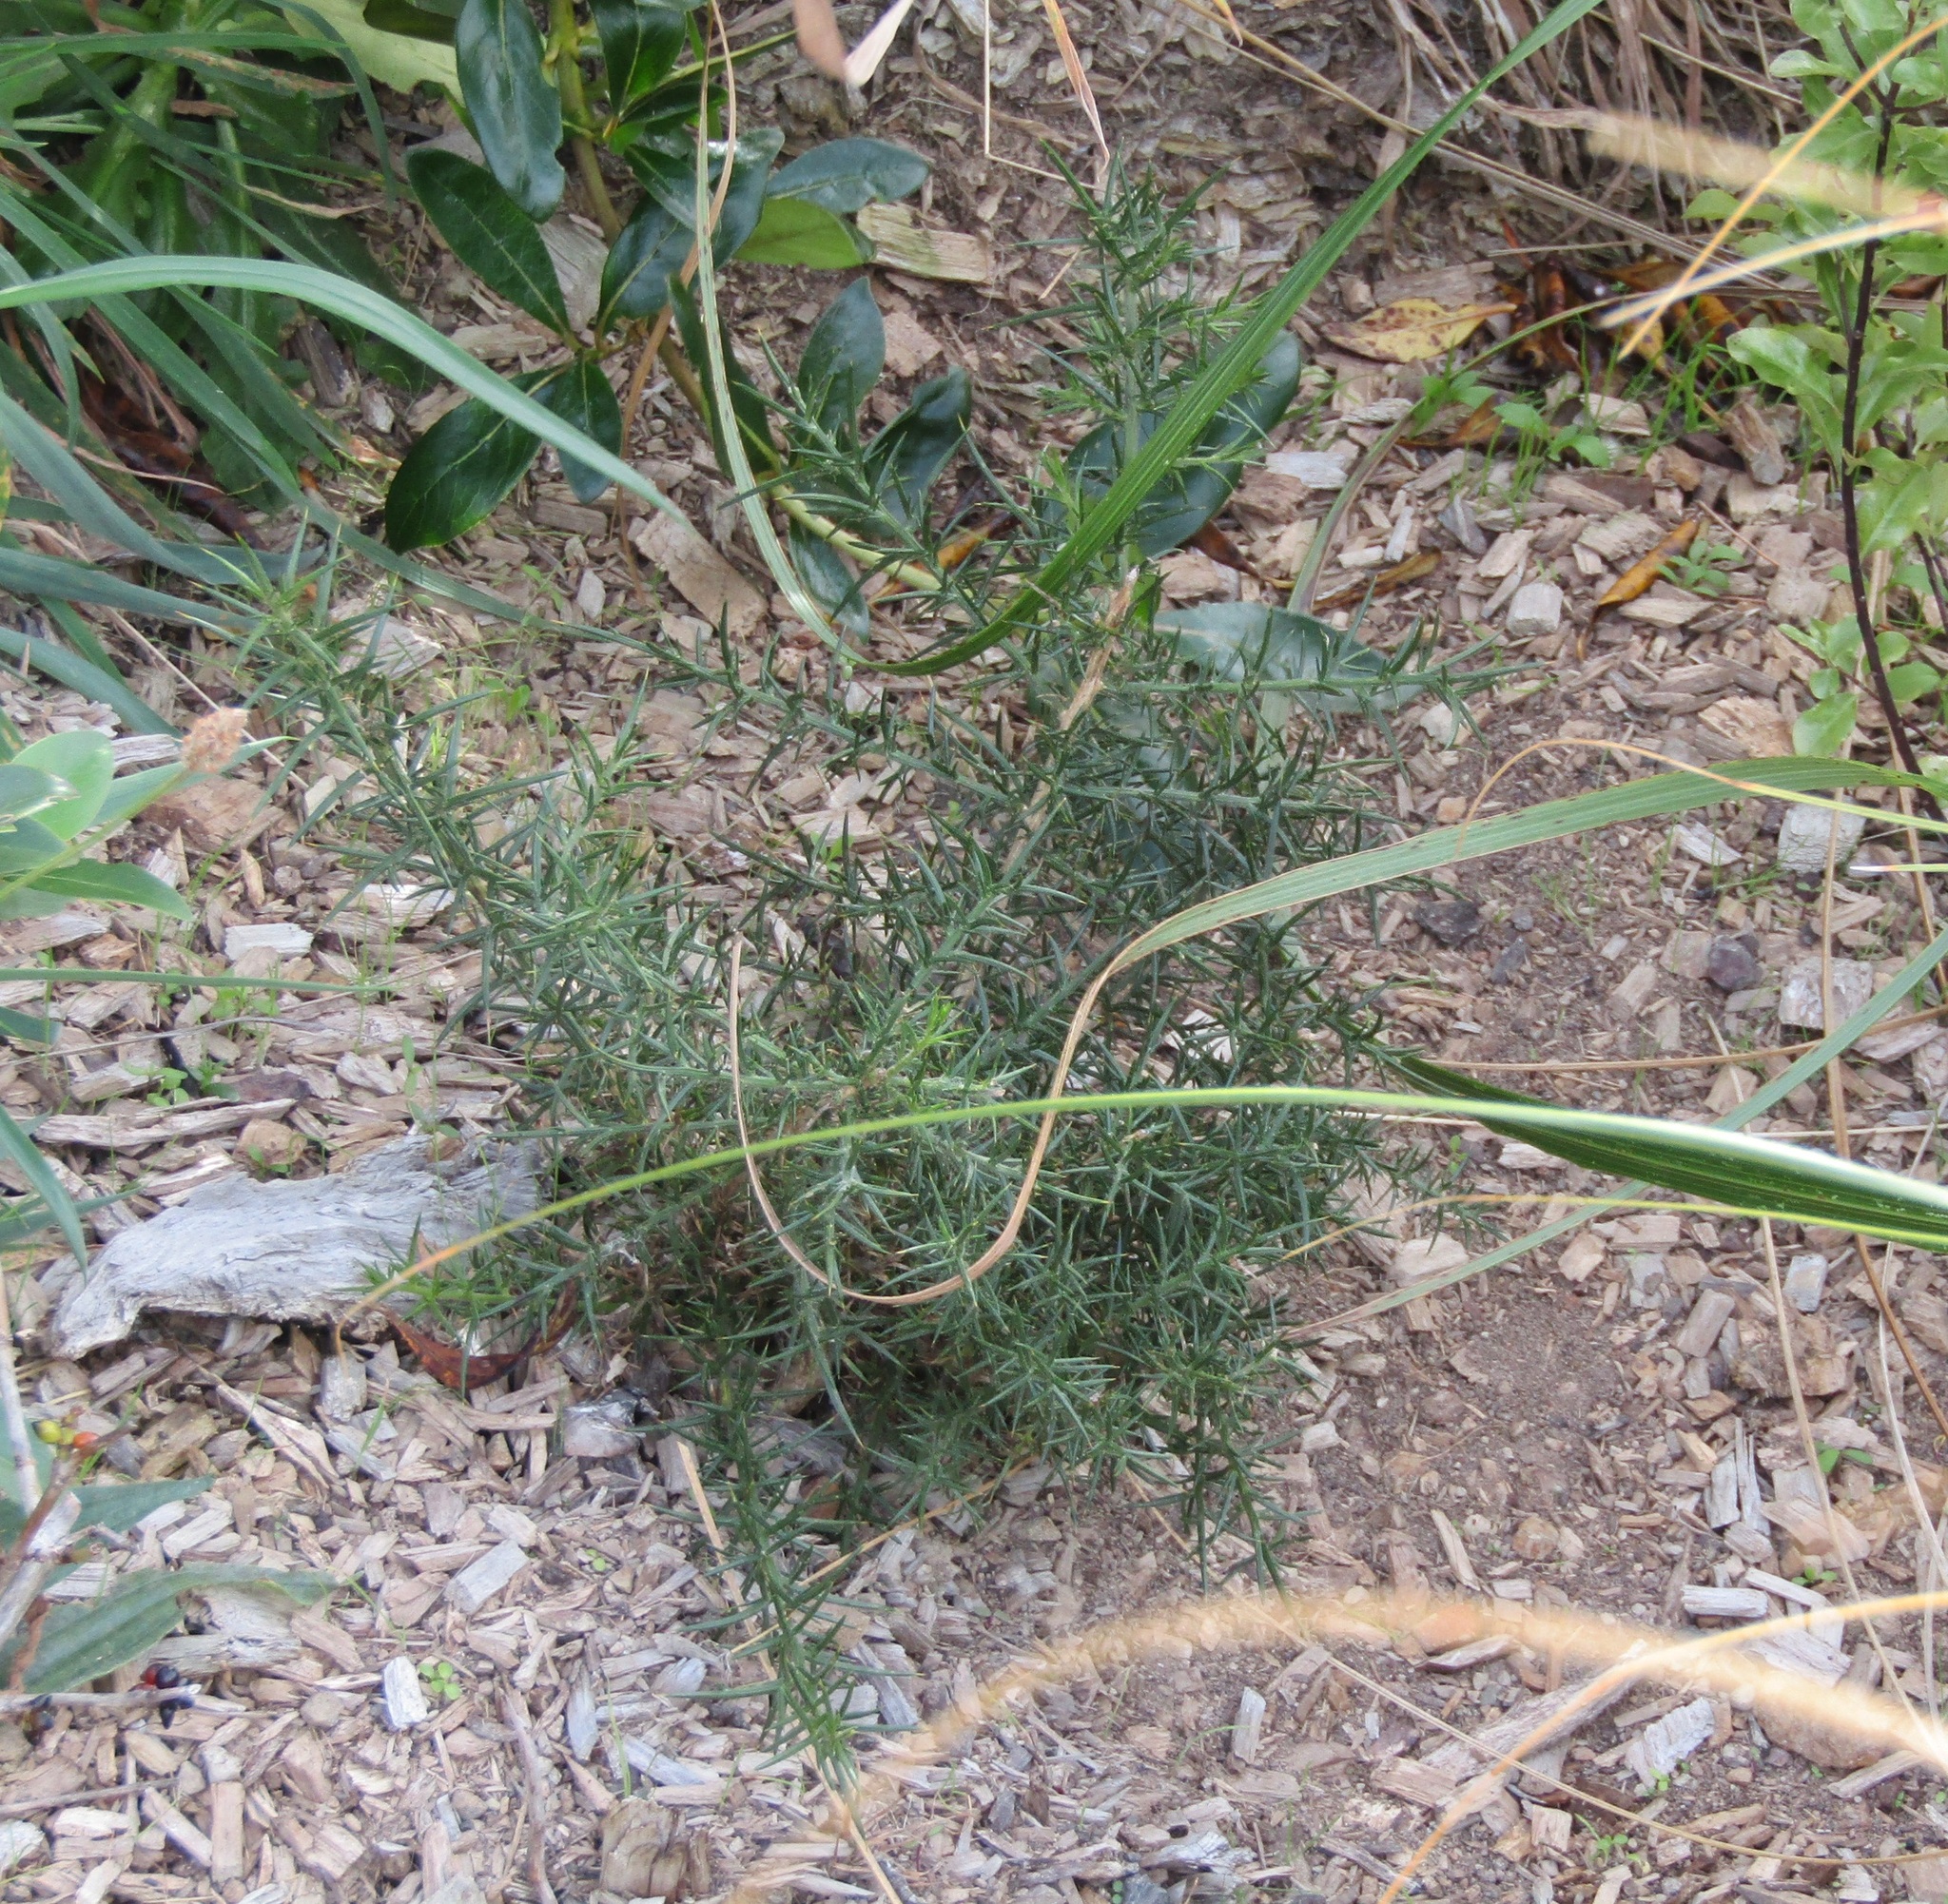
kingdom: Plantae
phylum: Tracheophyta
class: Magnoliopsida
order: Fabales
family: Fabaceae
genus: Ulex
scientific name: Ulex europaeus
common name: Common gorse
